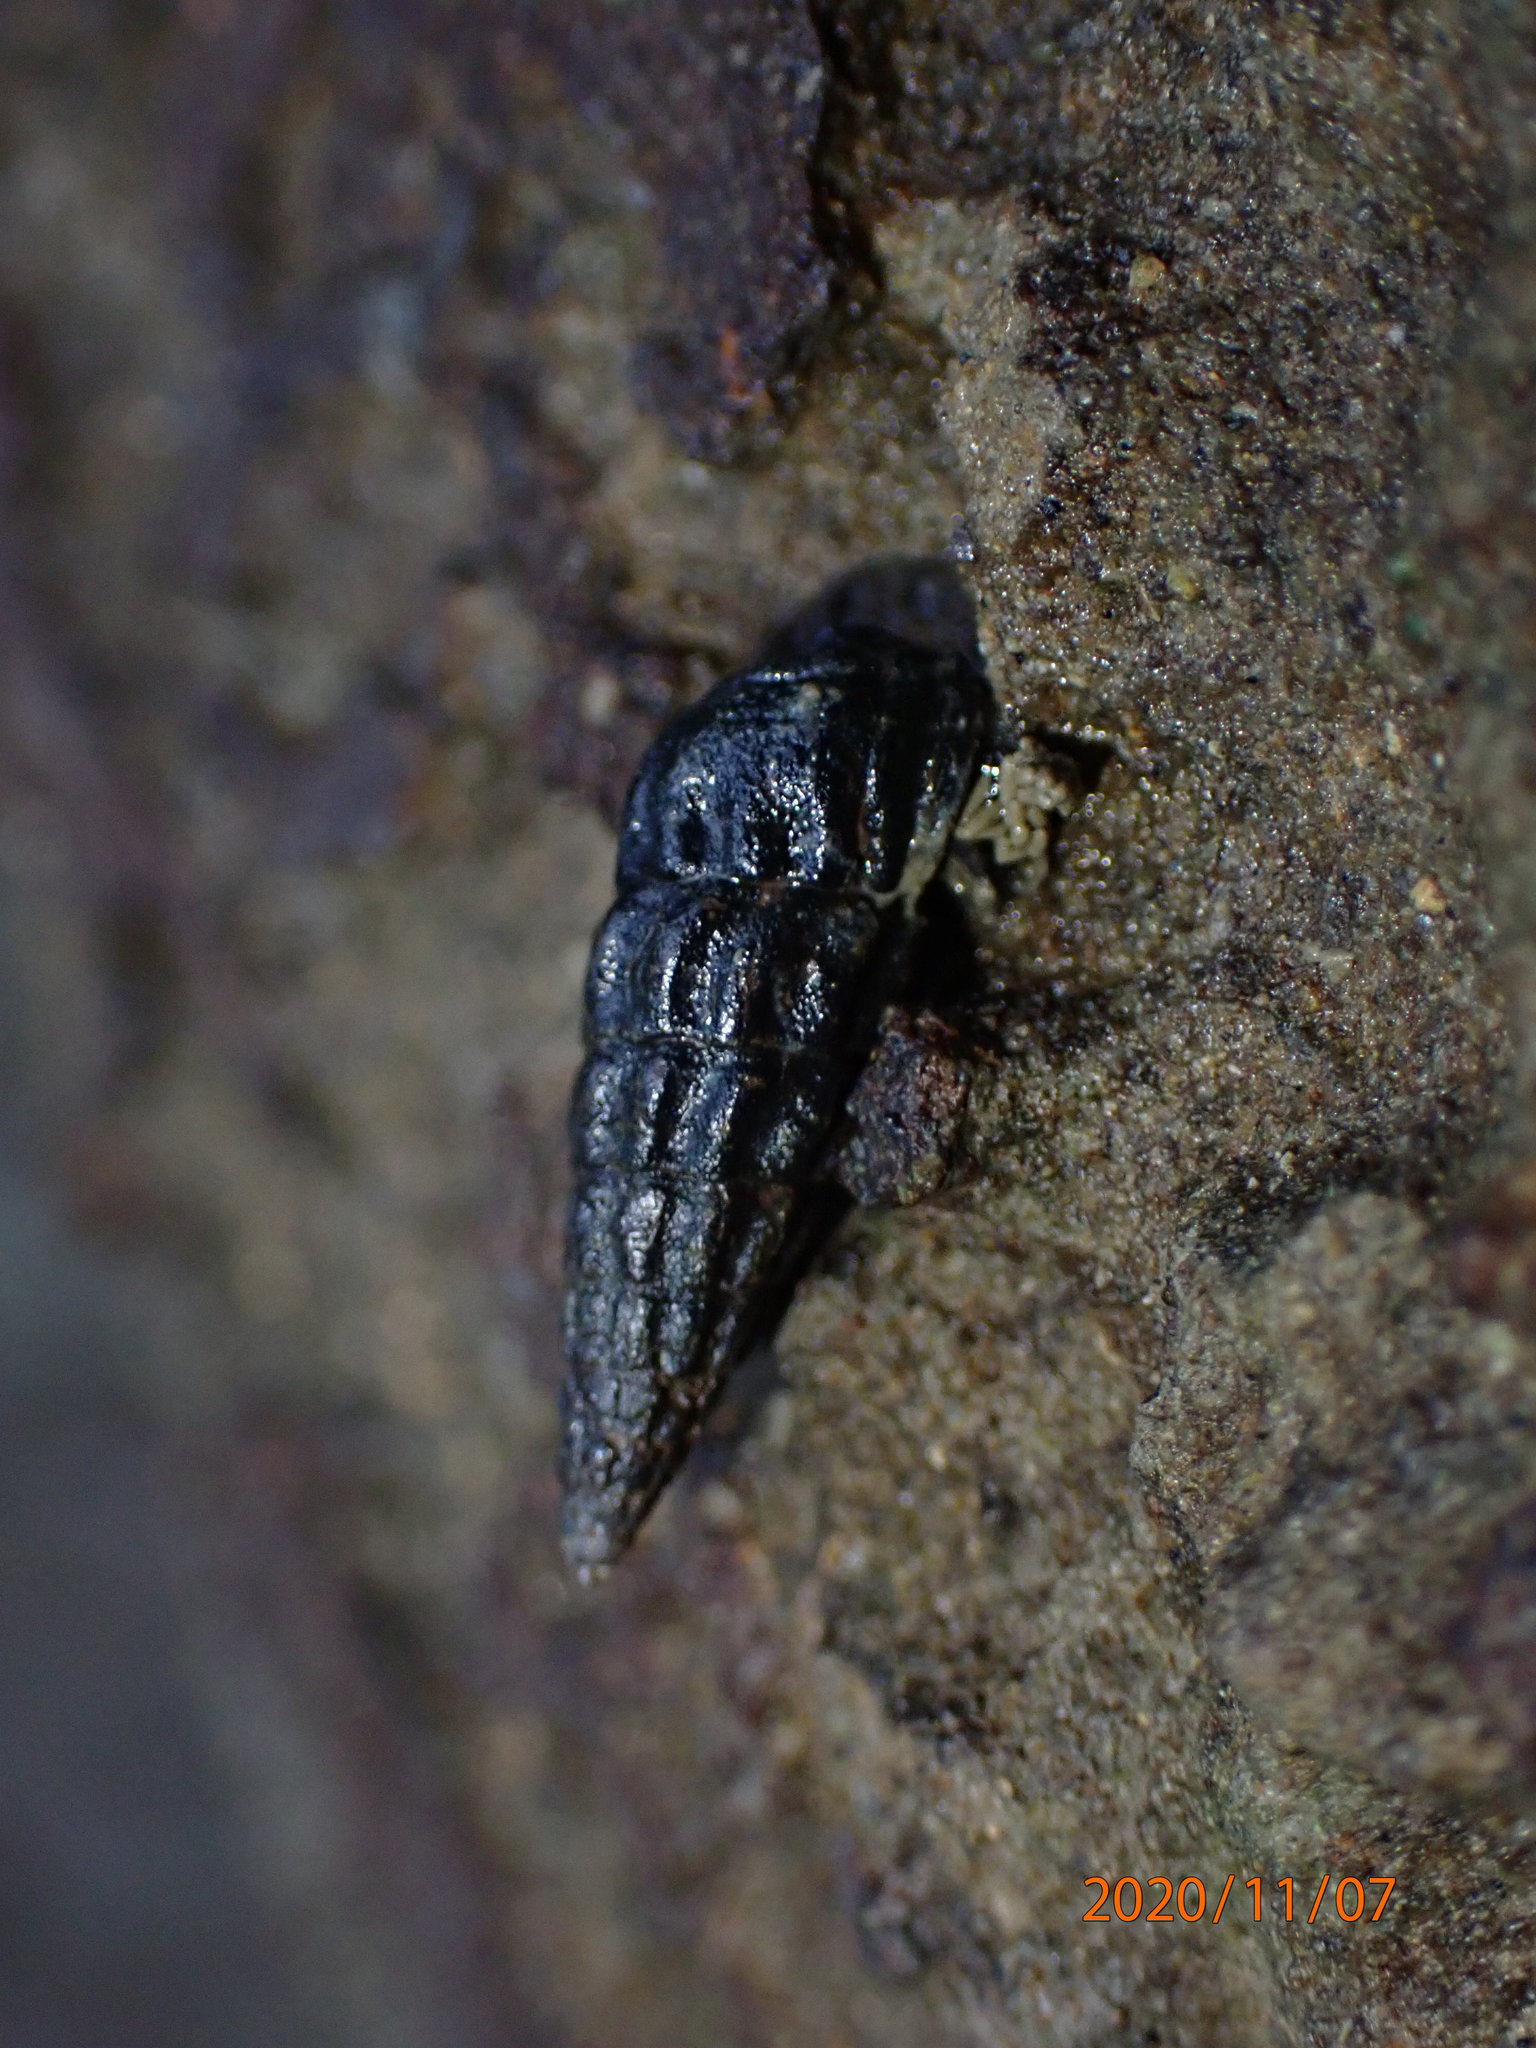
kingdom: Animalia
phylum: Mollusca
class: Gastropoda
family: Batillariidae
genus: Zeacumantus
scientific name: Zeacumantus subcarinatus
